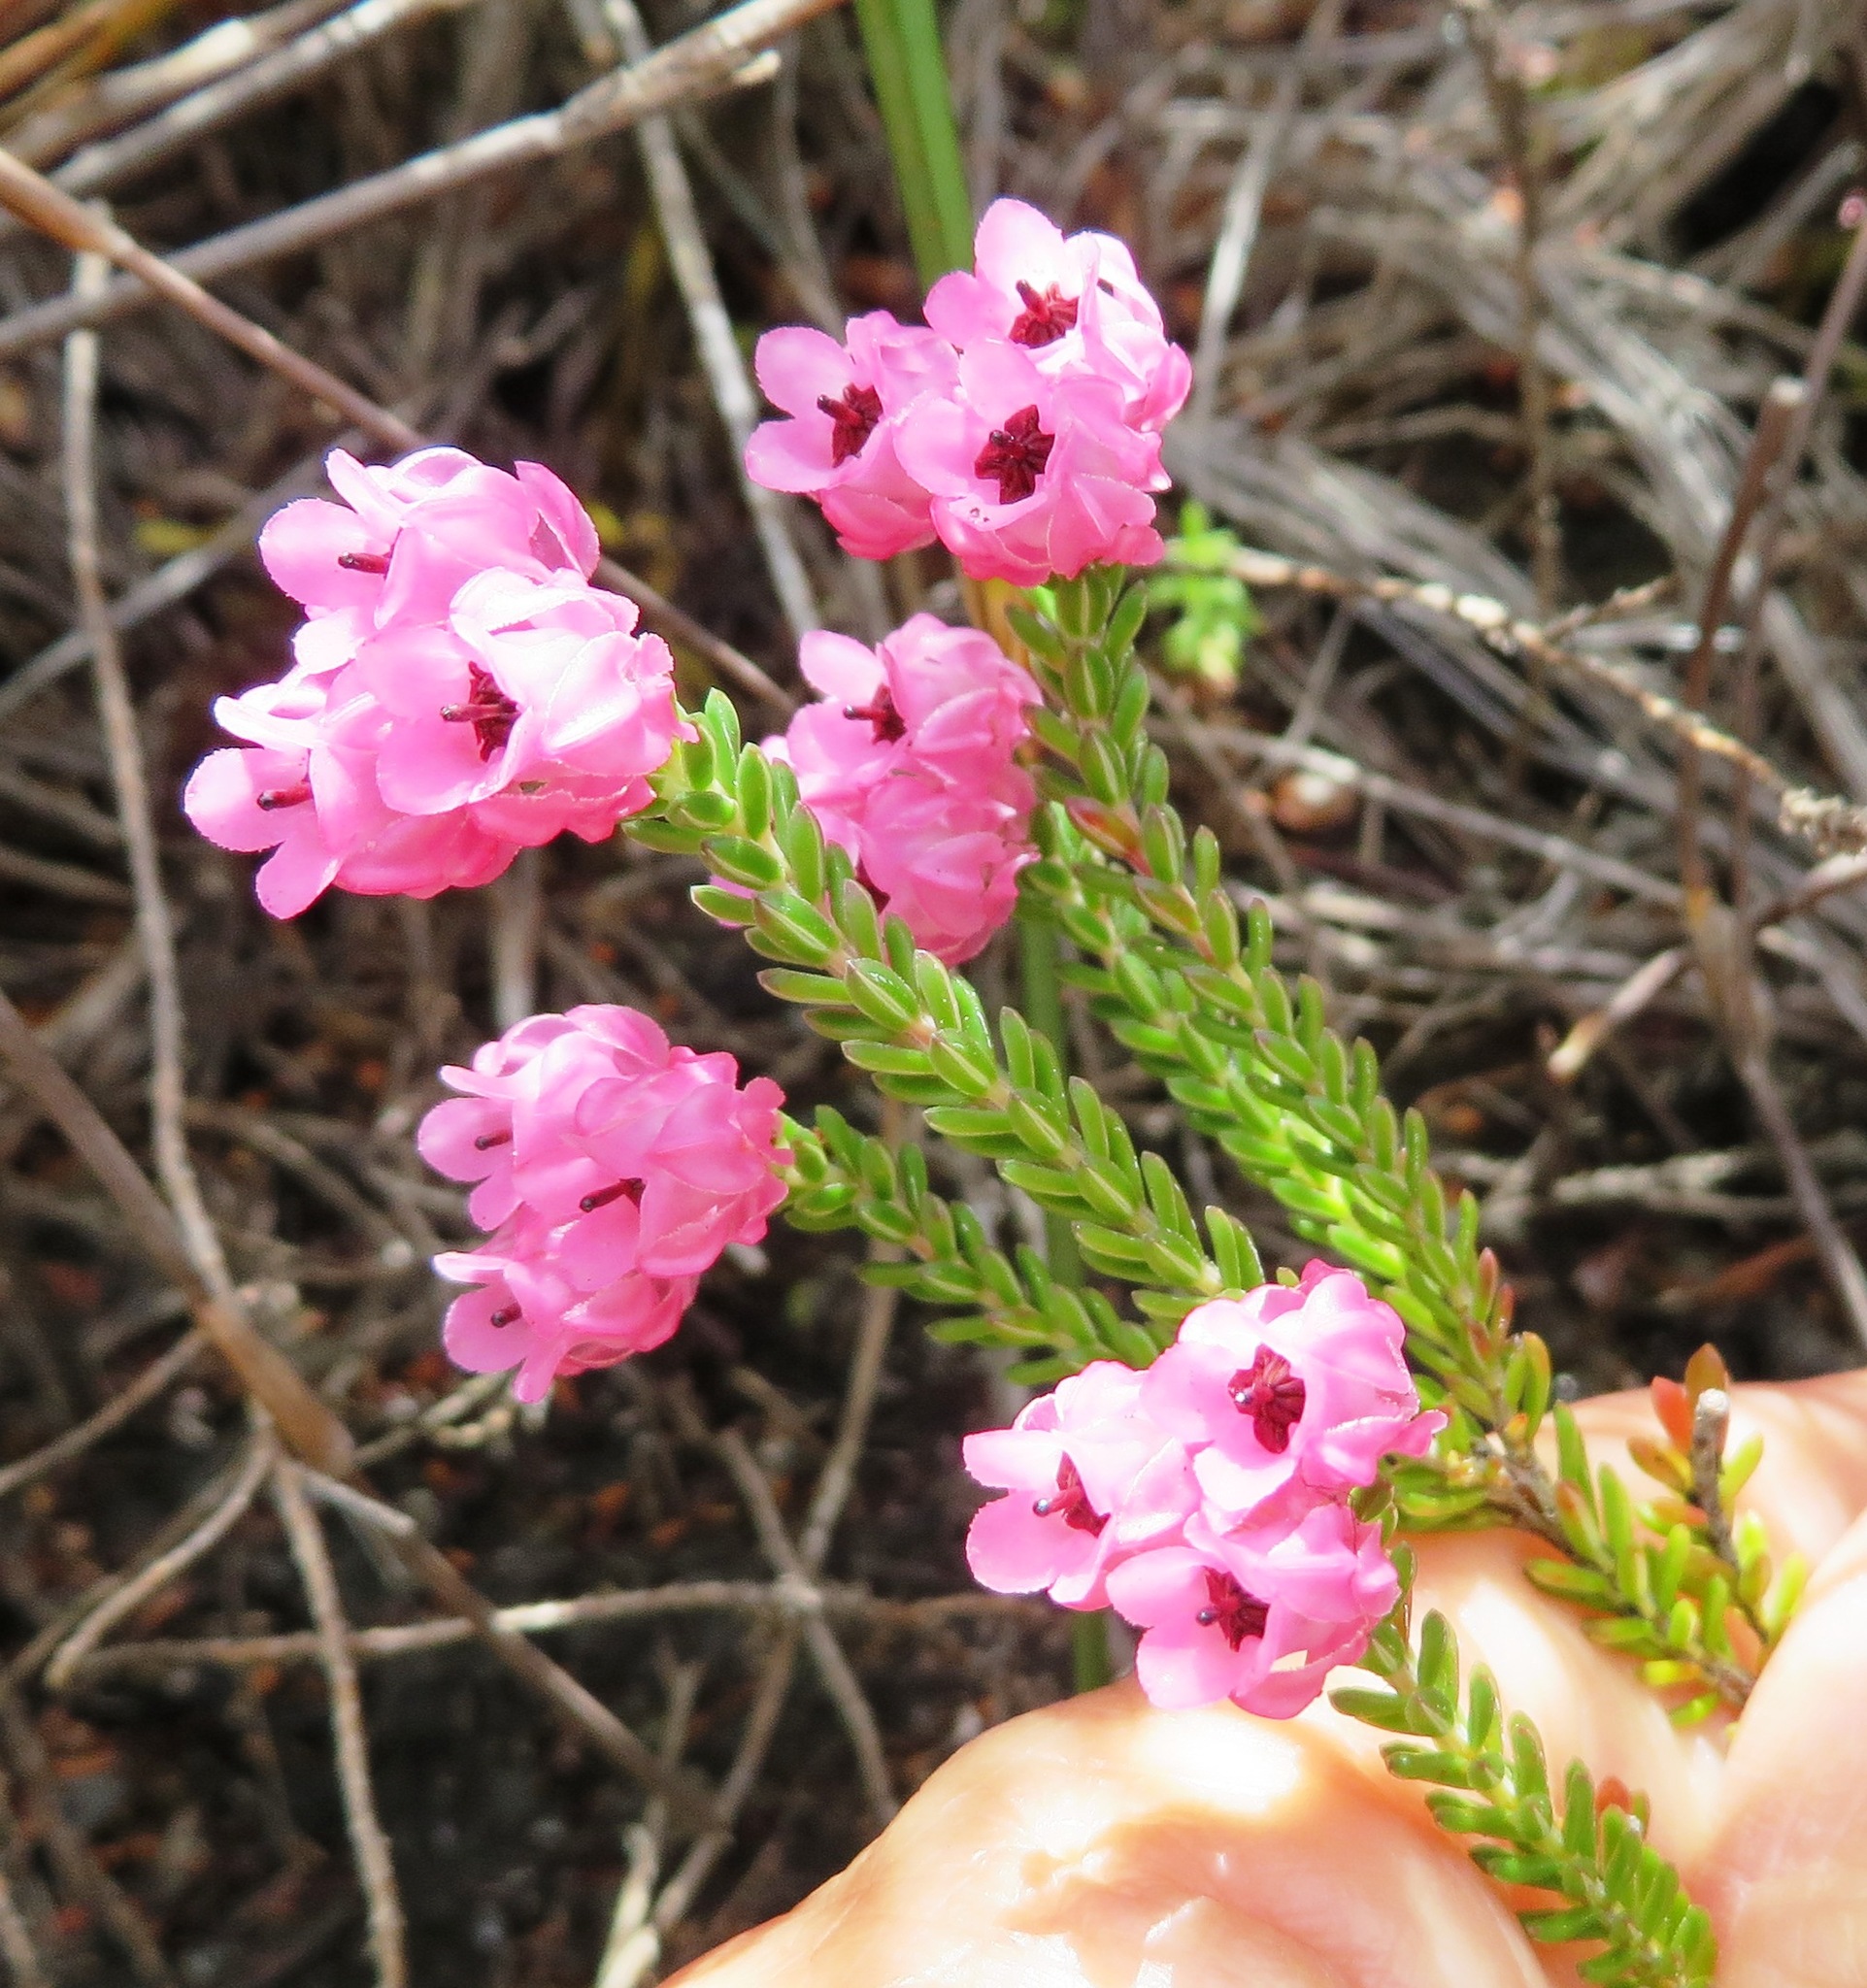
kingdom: Plantae
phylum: Tracheophyta
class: Magnoliopsida
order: Ericales
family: Ericaceae
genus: Erica
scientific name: Erica tegulifolia
